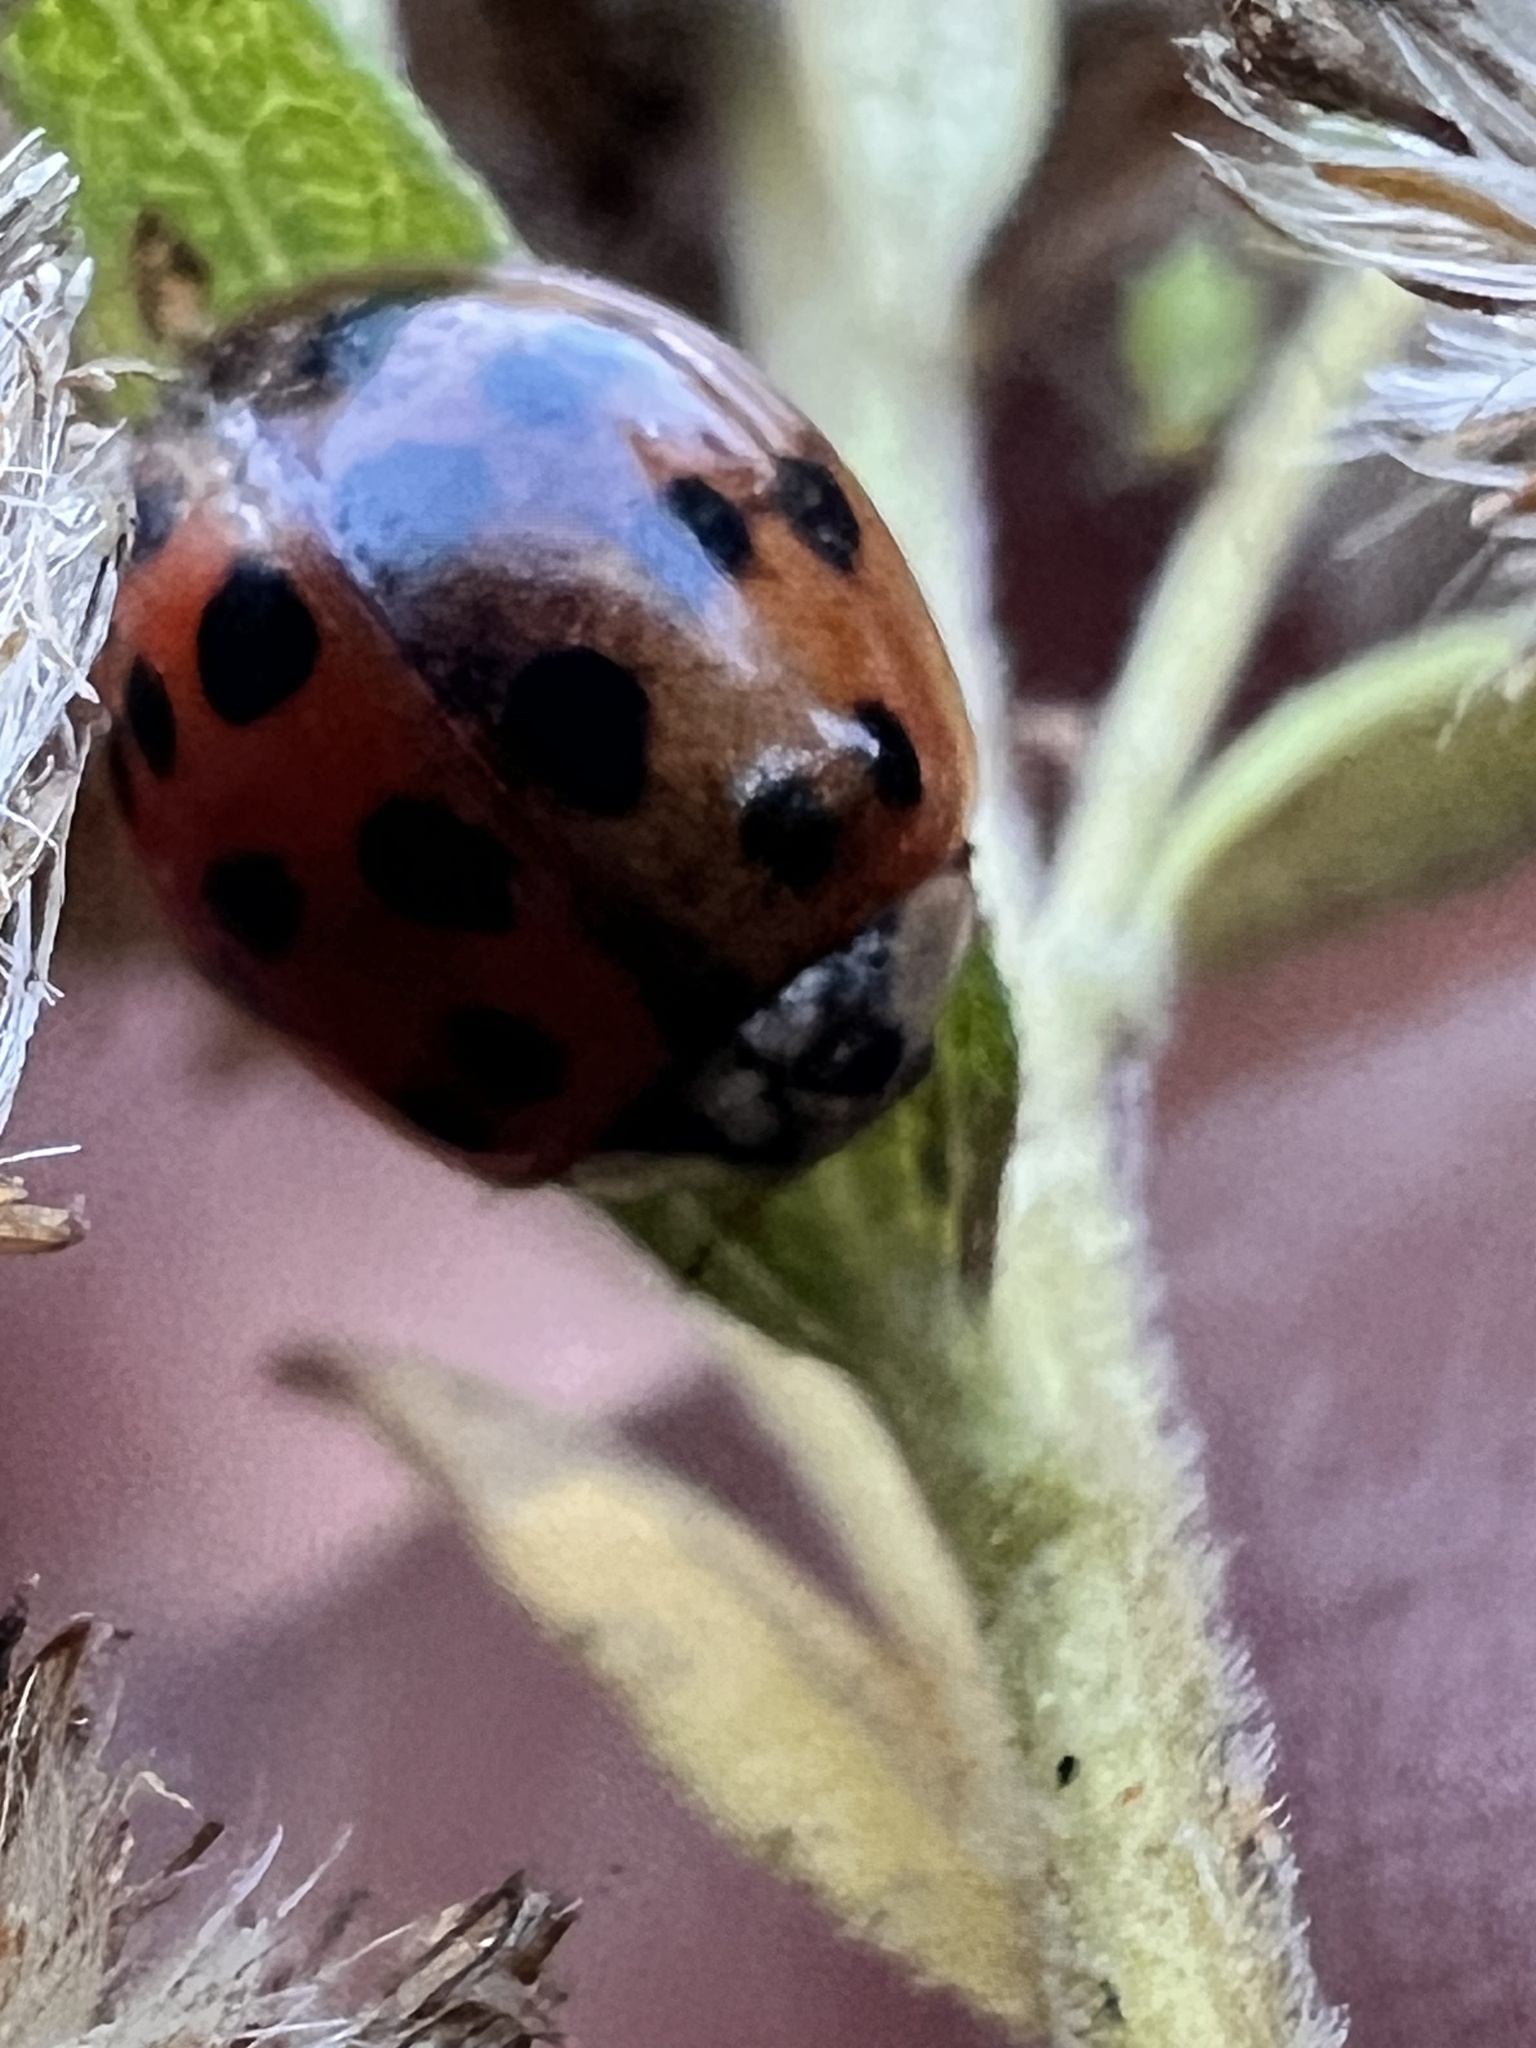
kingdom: Animalia
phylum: Arthropoda
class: Insecta
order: Coleoptera
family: Coccinellidae
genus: Harmonia
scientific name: Harmonia axyridis
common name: Harlequin ladybird
